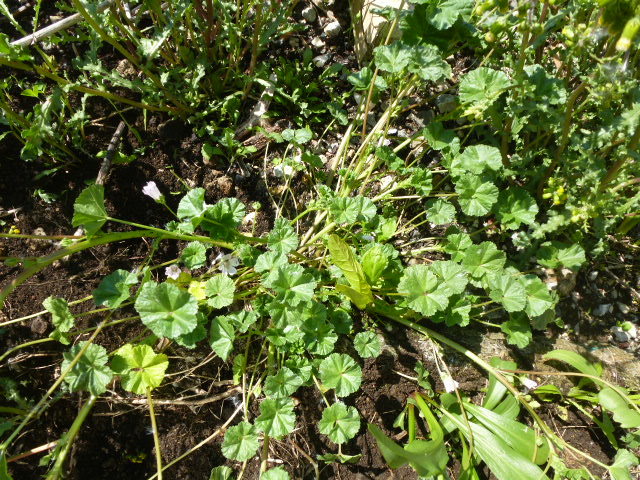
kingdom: Plantae
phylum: Tracheophyta
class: Magnoliopsida
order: Malvales
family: Malvaceae
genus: Malva
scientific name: Malva neglecta
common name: Common mallow
